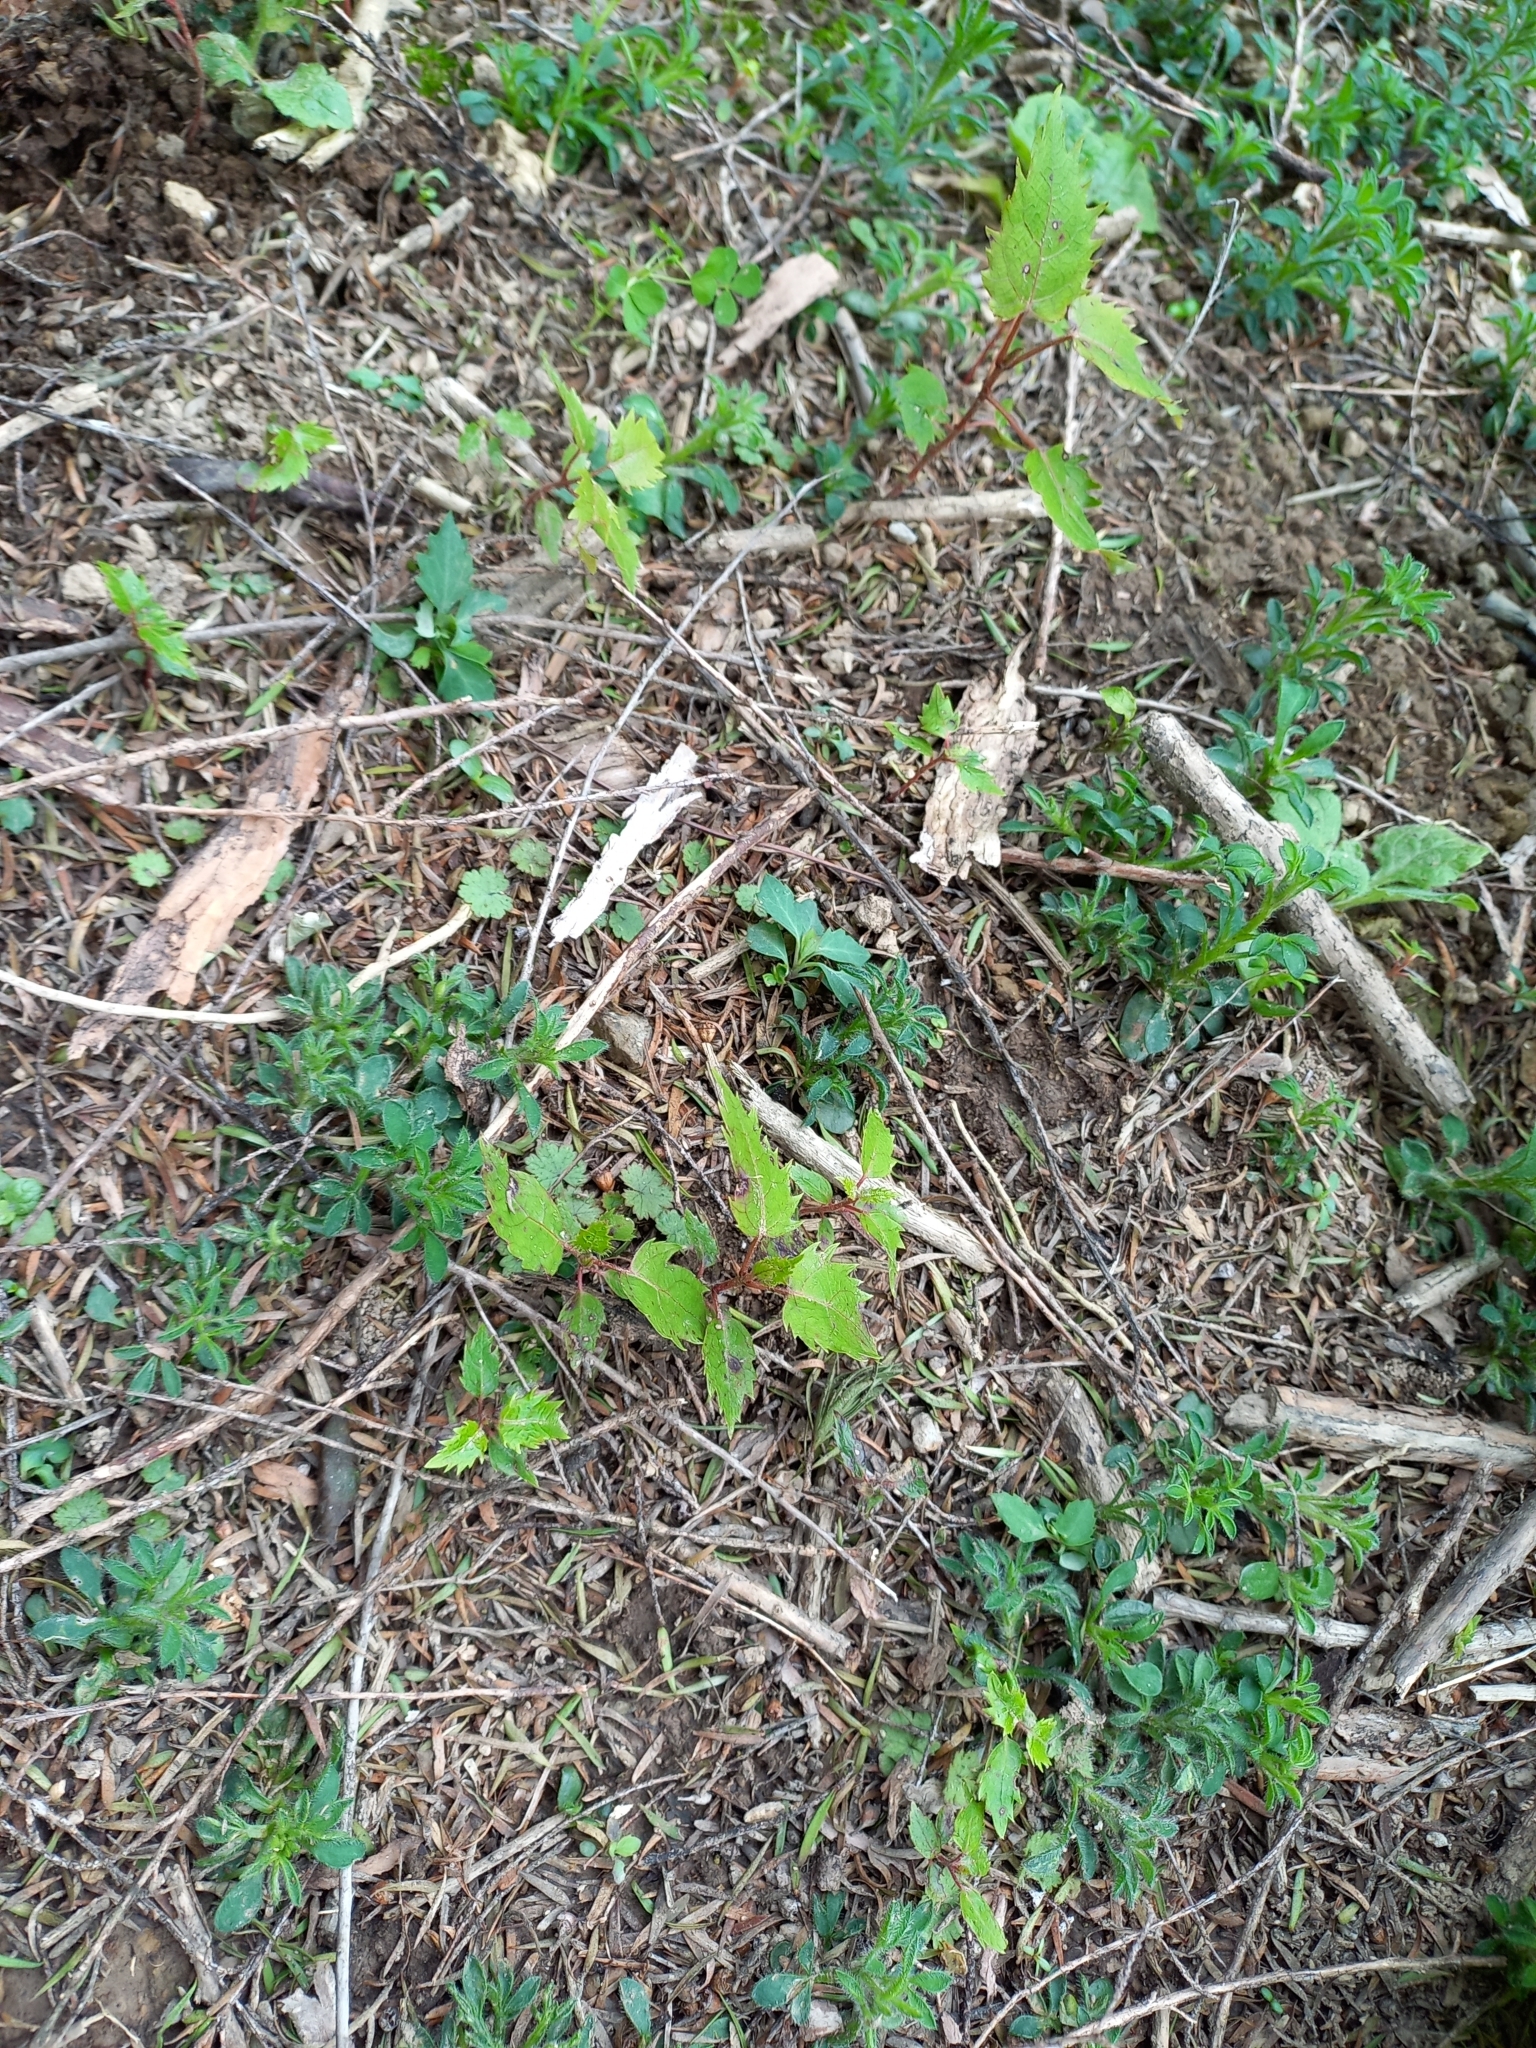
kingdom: Plantae
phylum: Tracheophyta
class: Magnoliopsida
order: Oxalidales
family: Elaeocarpaceae
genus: Aristotelia
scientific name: Aristotelia serrata
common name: New zealand wineberry
